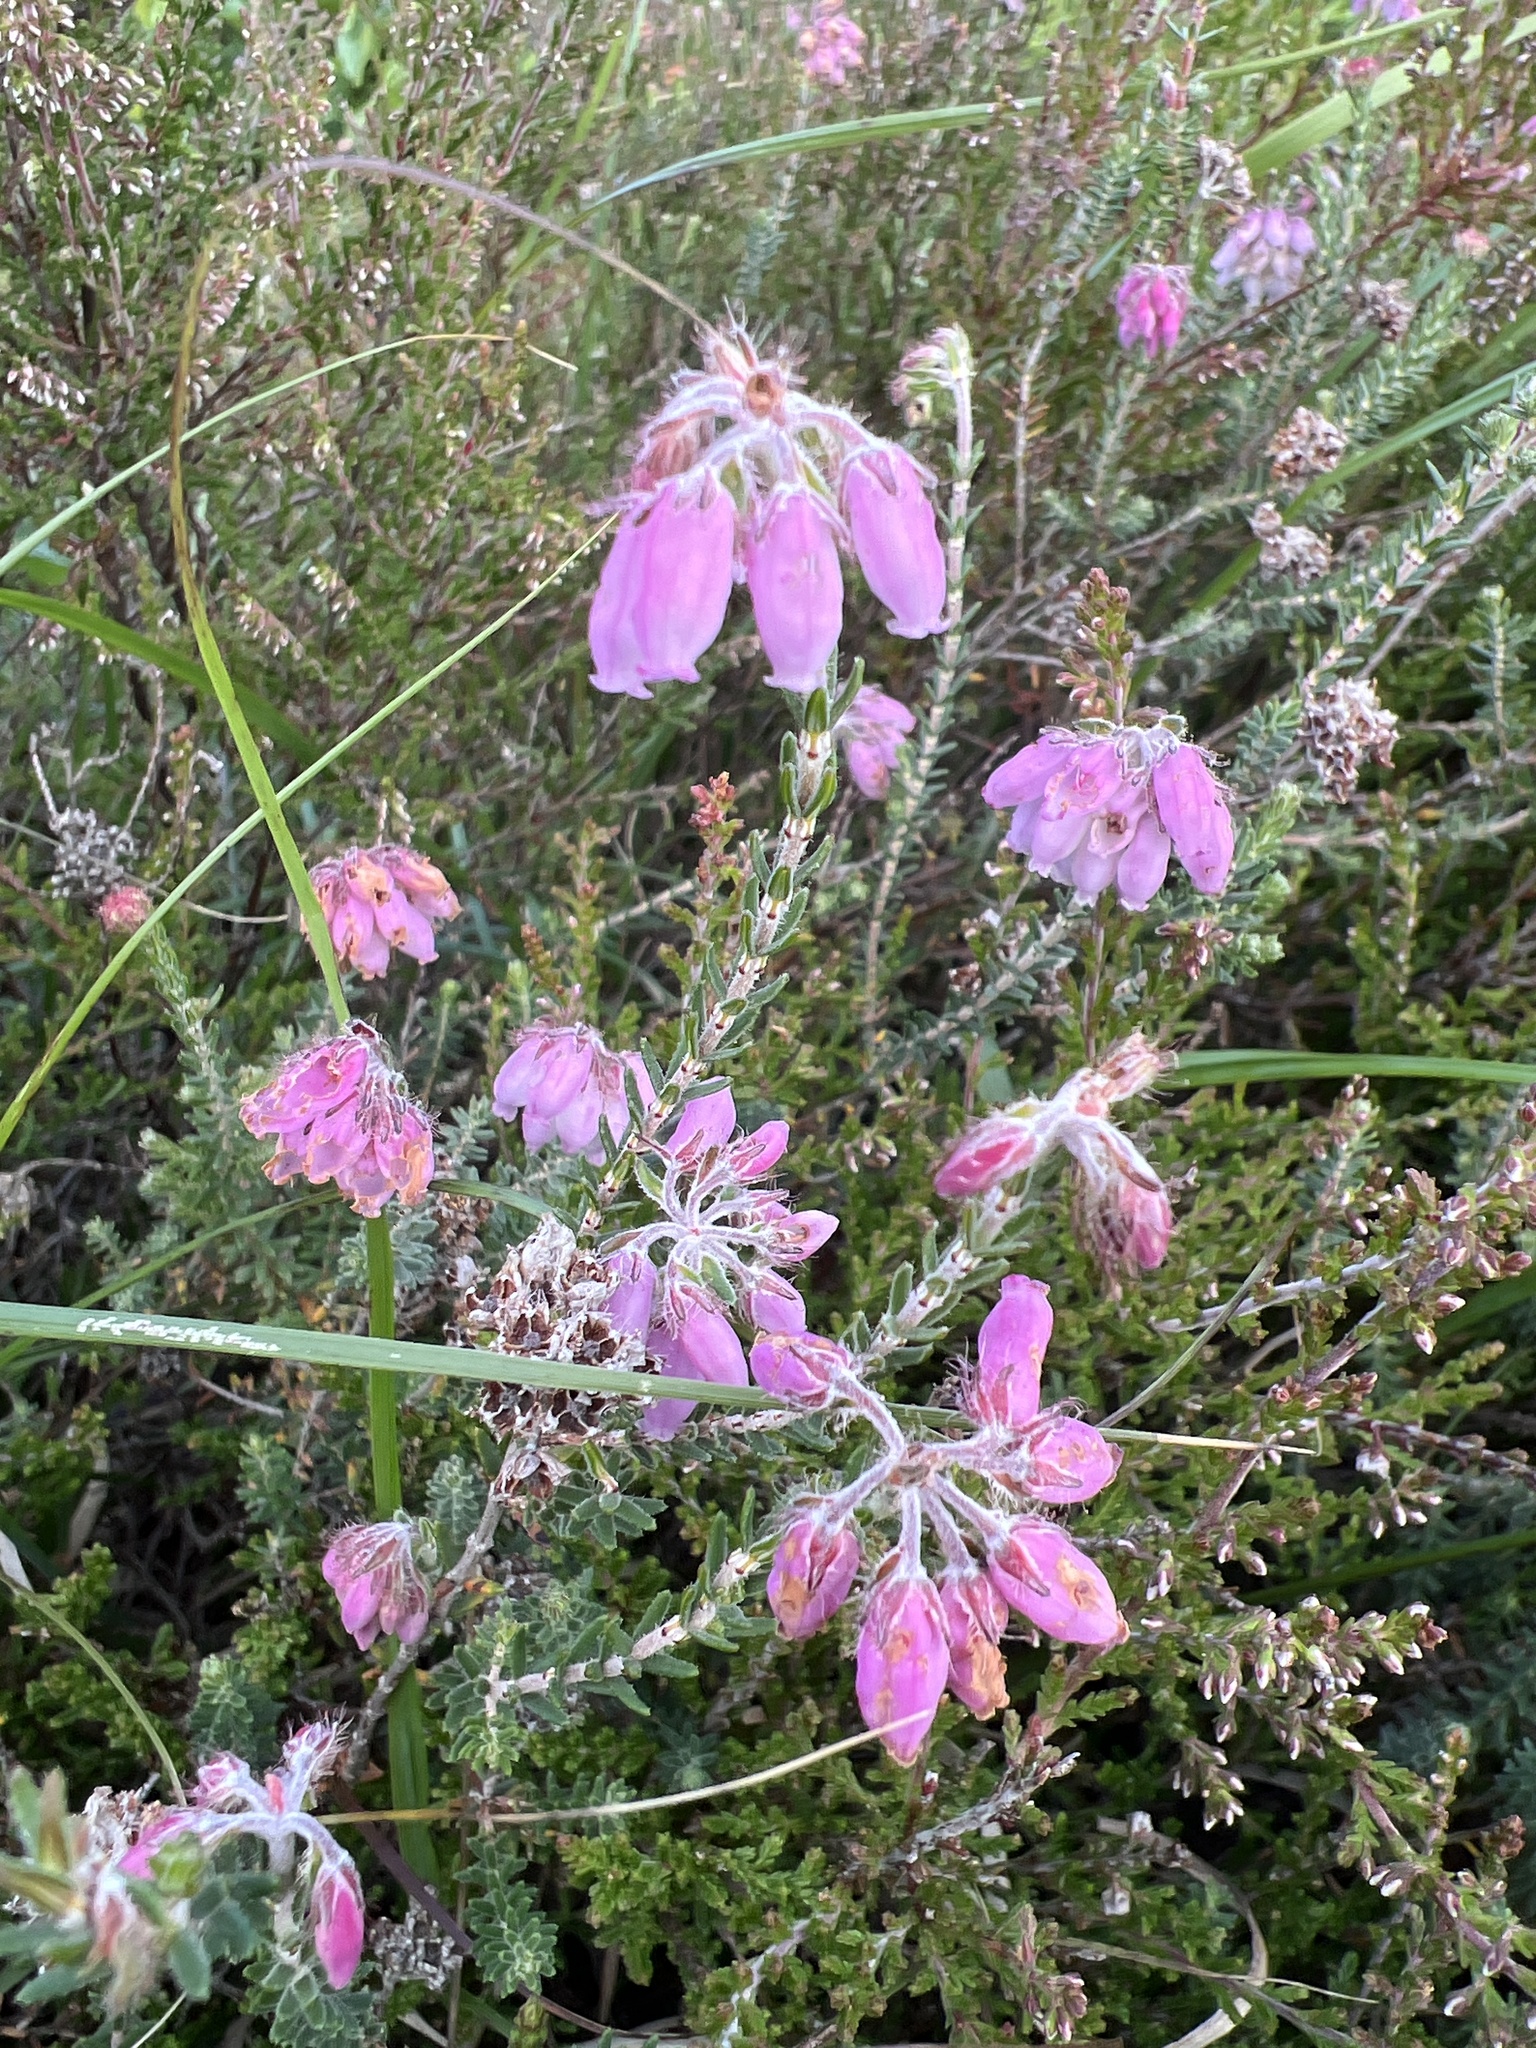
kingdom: Plantae
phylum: Tracheophyta
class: Magnoliopsida
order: Ericales
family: Ericaceae
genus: Erica
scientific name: Erica tetralix
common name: Cross-leaved heath
